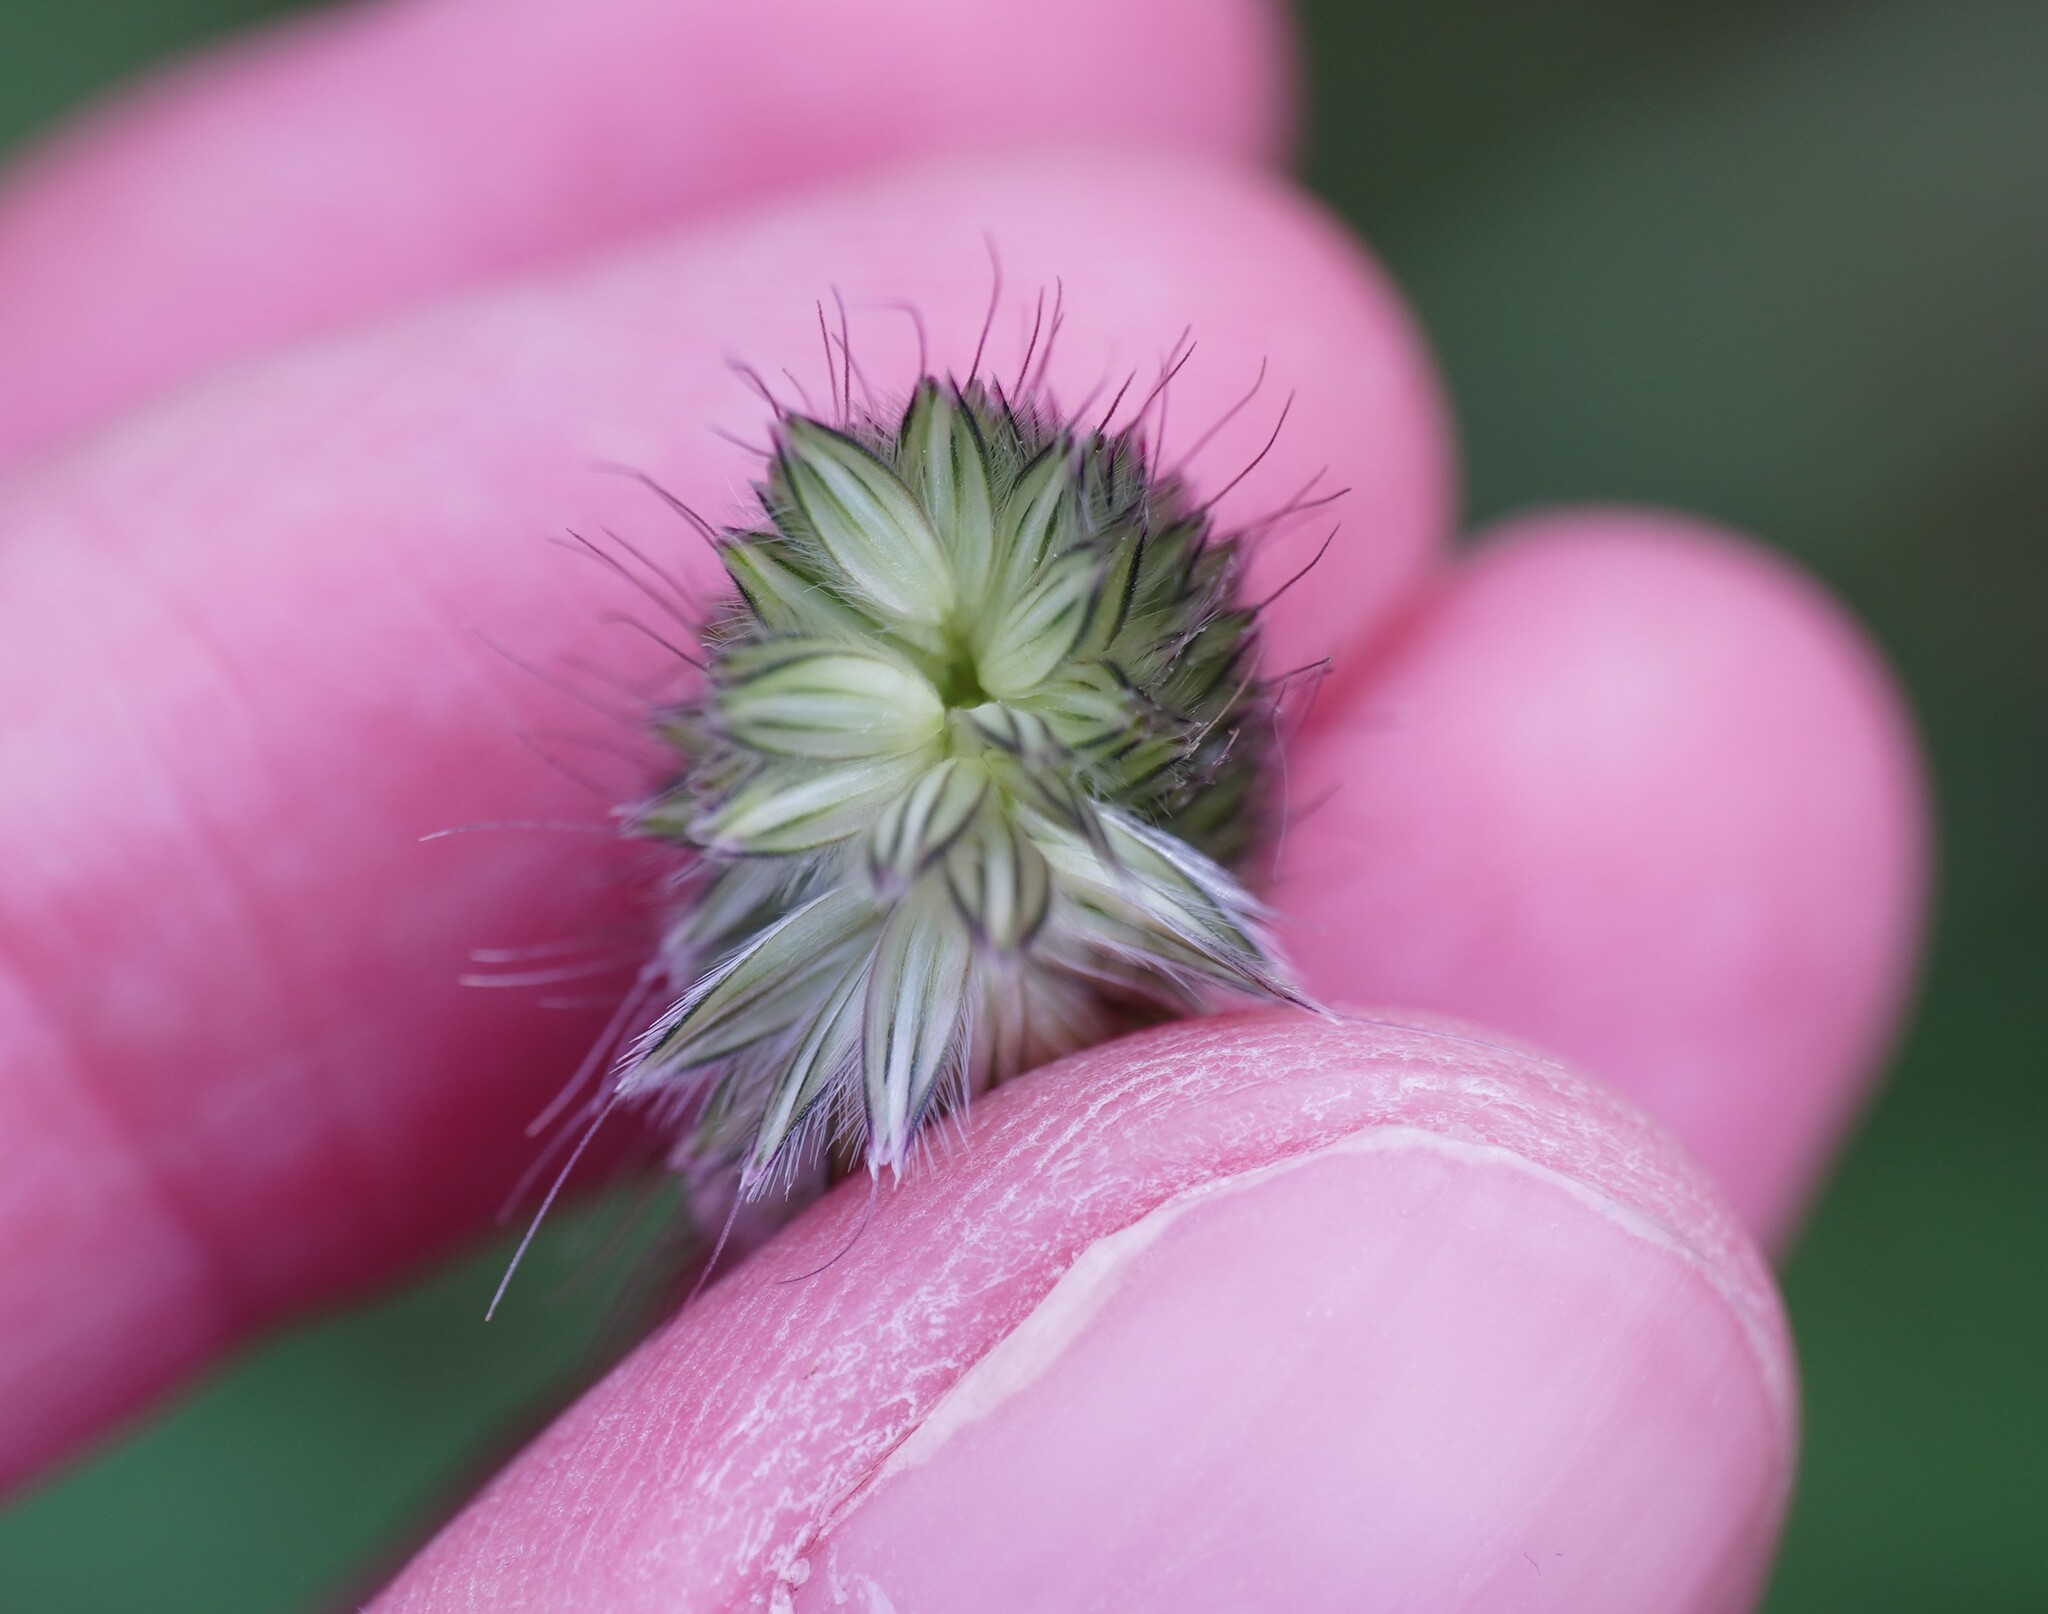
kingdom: Plantae
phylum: Tracheophyta
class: Liliopsida
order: Poales
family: Poaceae
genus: Alopecurus
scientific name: Alopecurus pratensis
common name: Meadow foxtail
